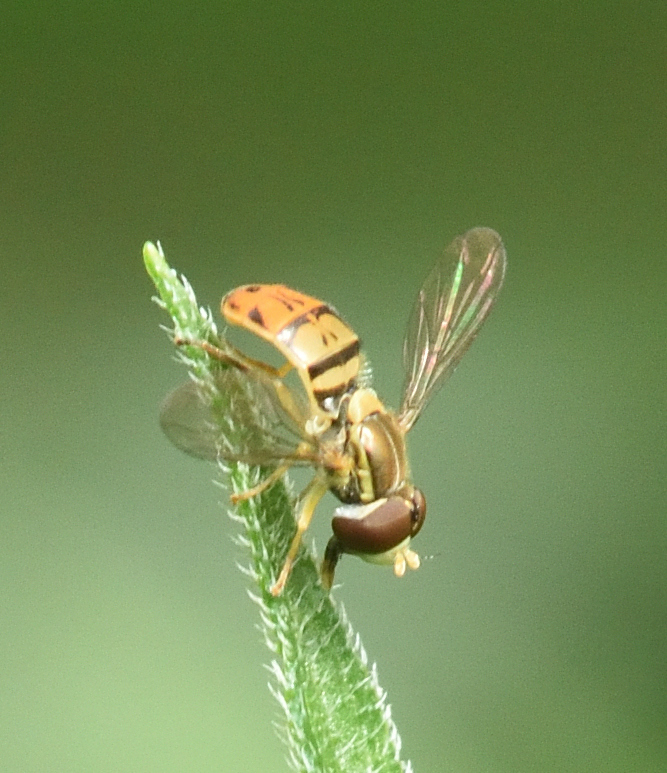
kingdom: Animalia
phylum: Arthropoda
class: Insecta
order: Diptera
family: Syrphidae
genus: Toxomerus
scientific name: Toxomerus marginatus
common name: Syrphid fly
